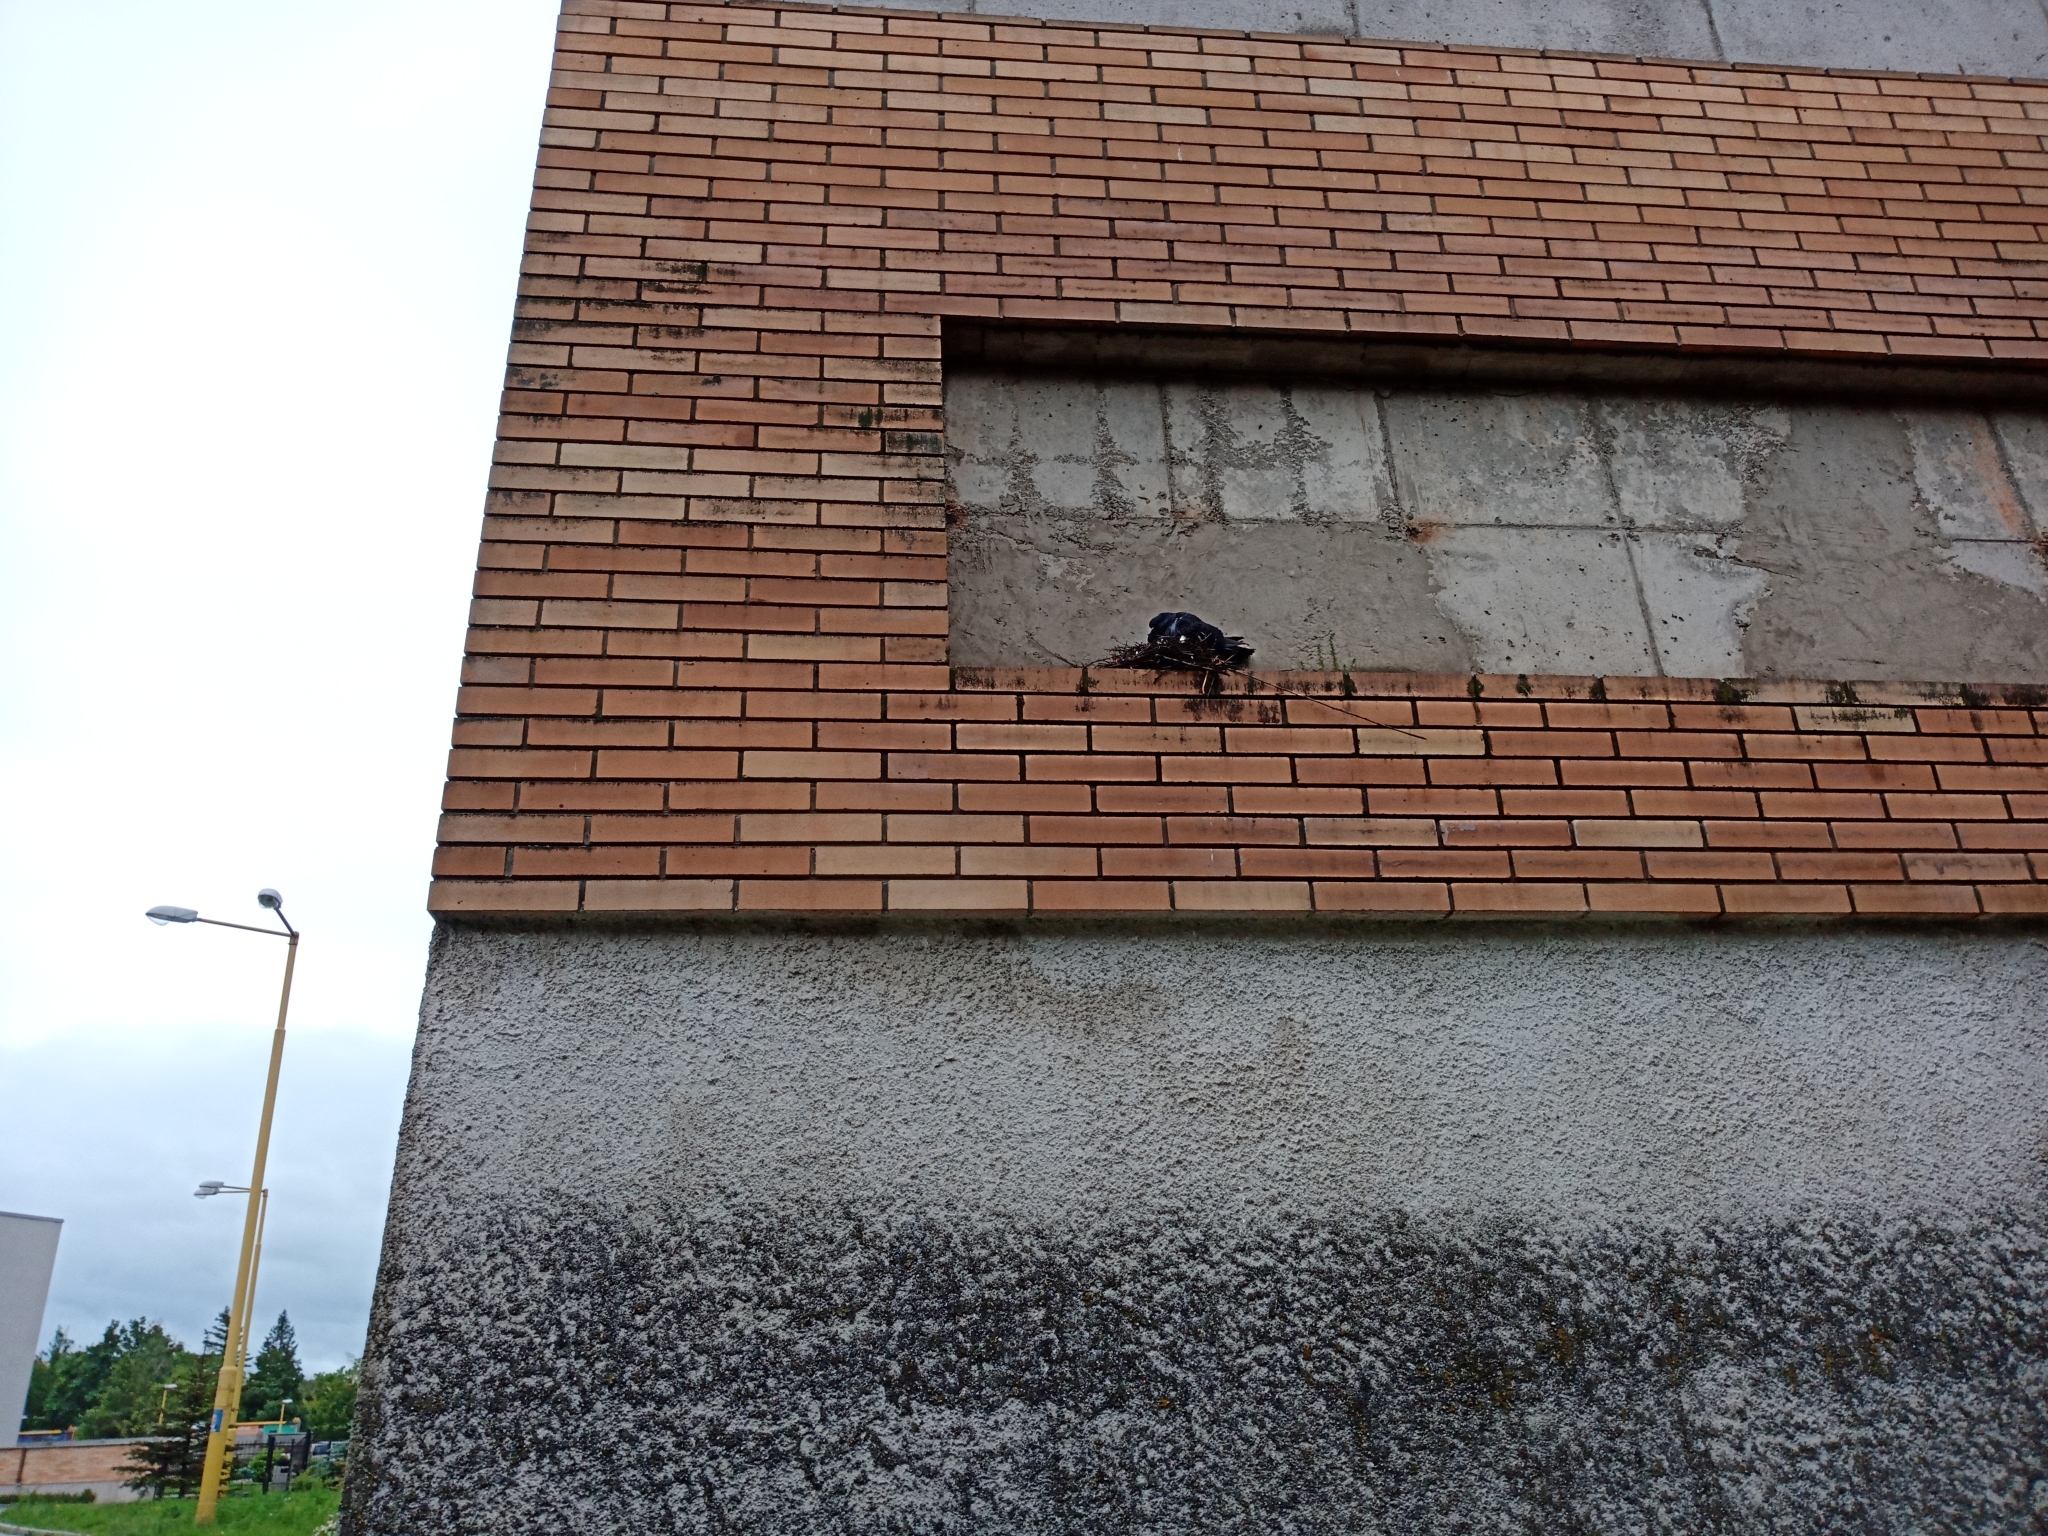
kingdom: Animalia
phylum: Chordata
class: Aves
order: Columbiformes
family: Columbidae
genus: Columba
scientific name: Columba livia
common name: Rock pigeon
